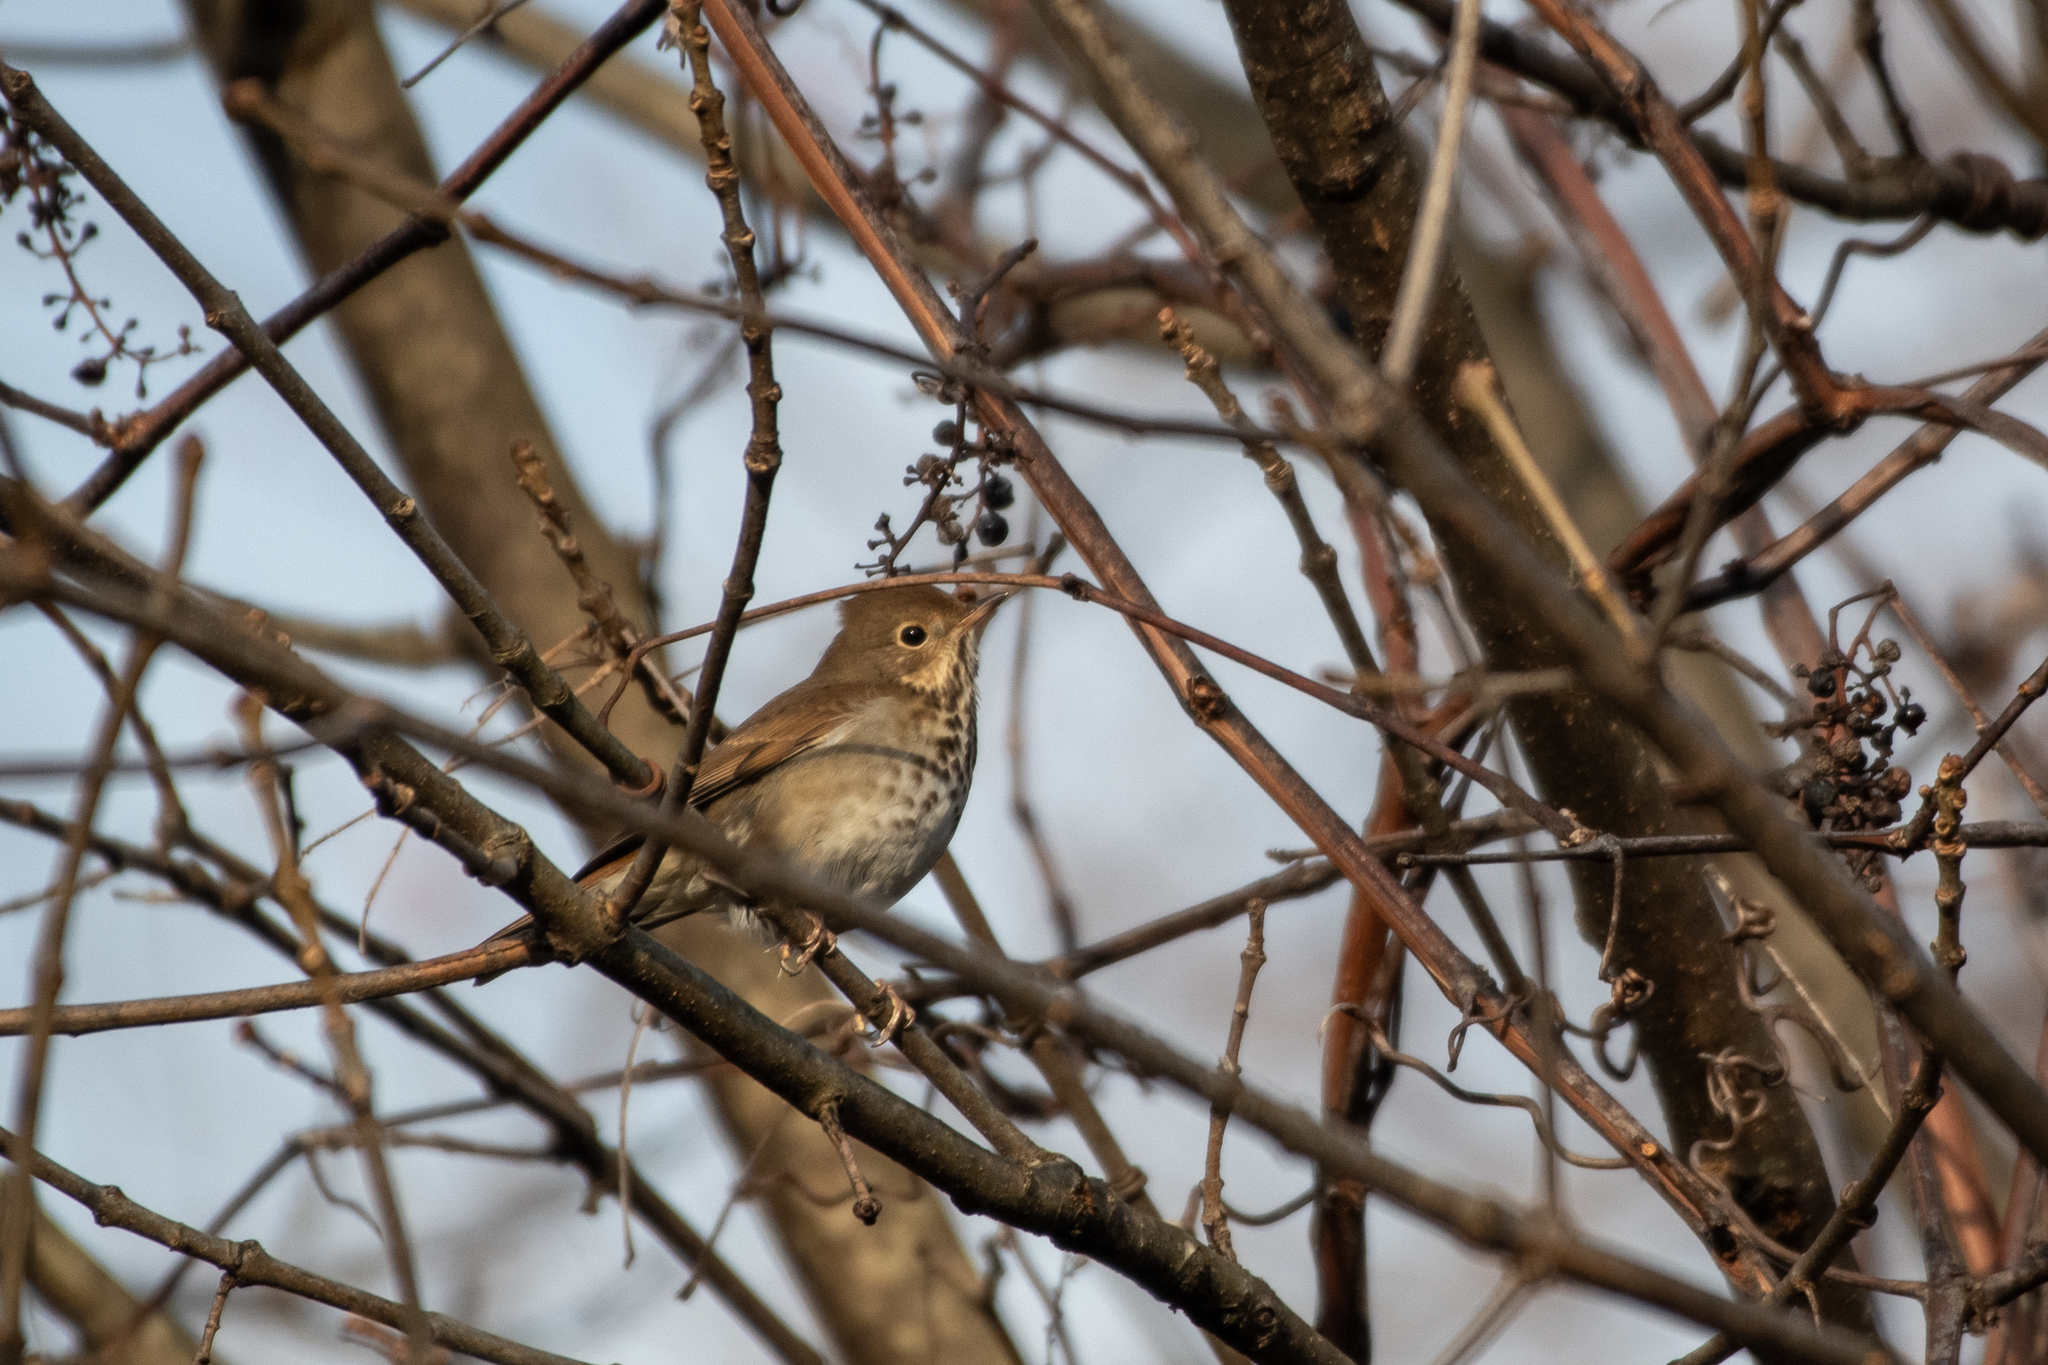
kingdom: Animalia
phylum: Chordata
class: Aves
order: Passeriformes
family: Turdidae
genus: Catharus
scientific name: Catharus guttatus
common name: Hermit thrush
